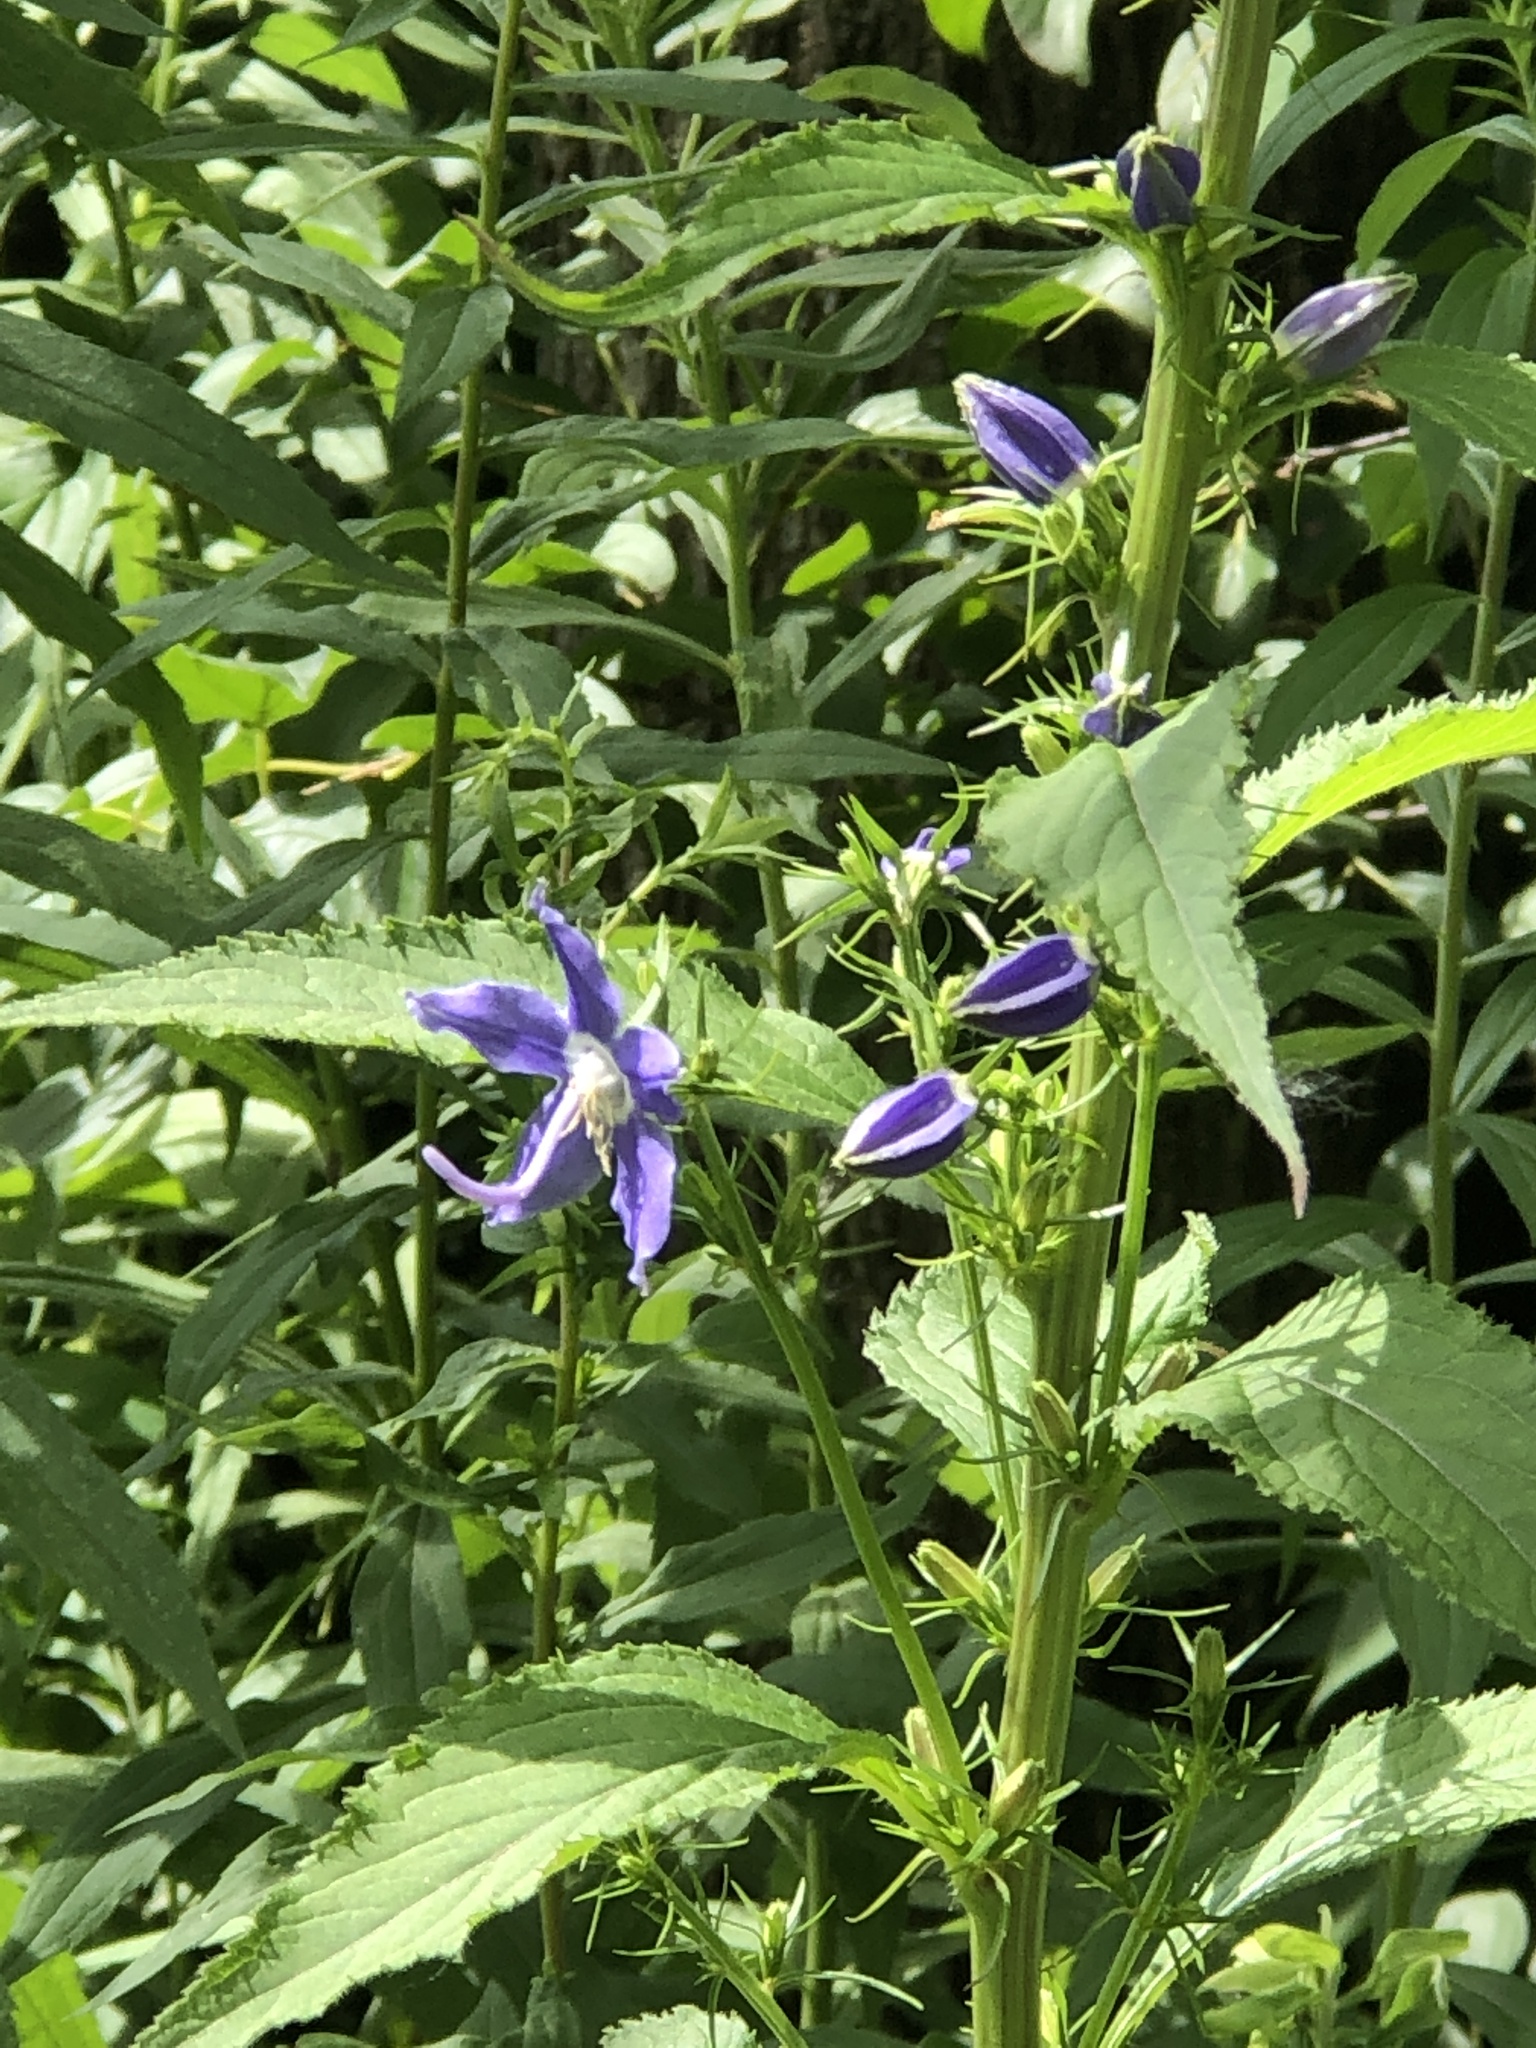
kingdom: Plantae
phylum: Tracheophyta
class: Magnoliopsida
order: Asterales
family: Campanulaceae
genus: Campanulastrum
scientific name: Campanulastrum americanum
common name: American bellflower
